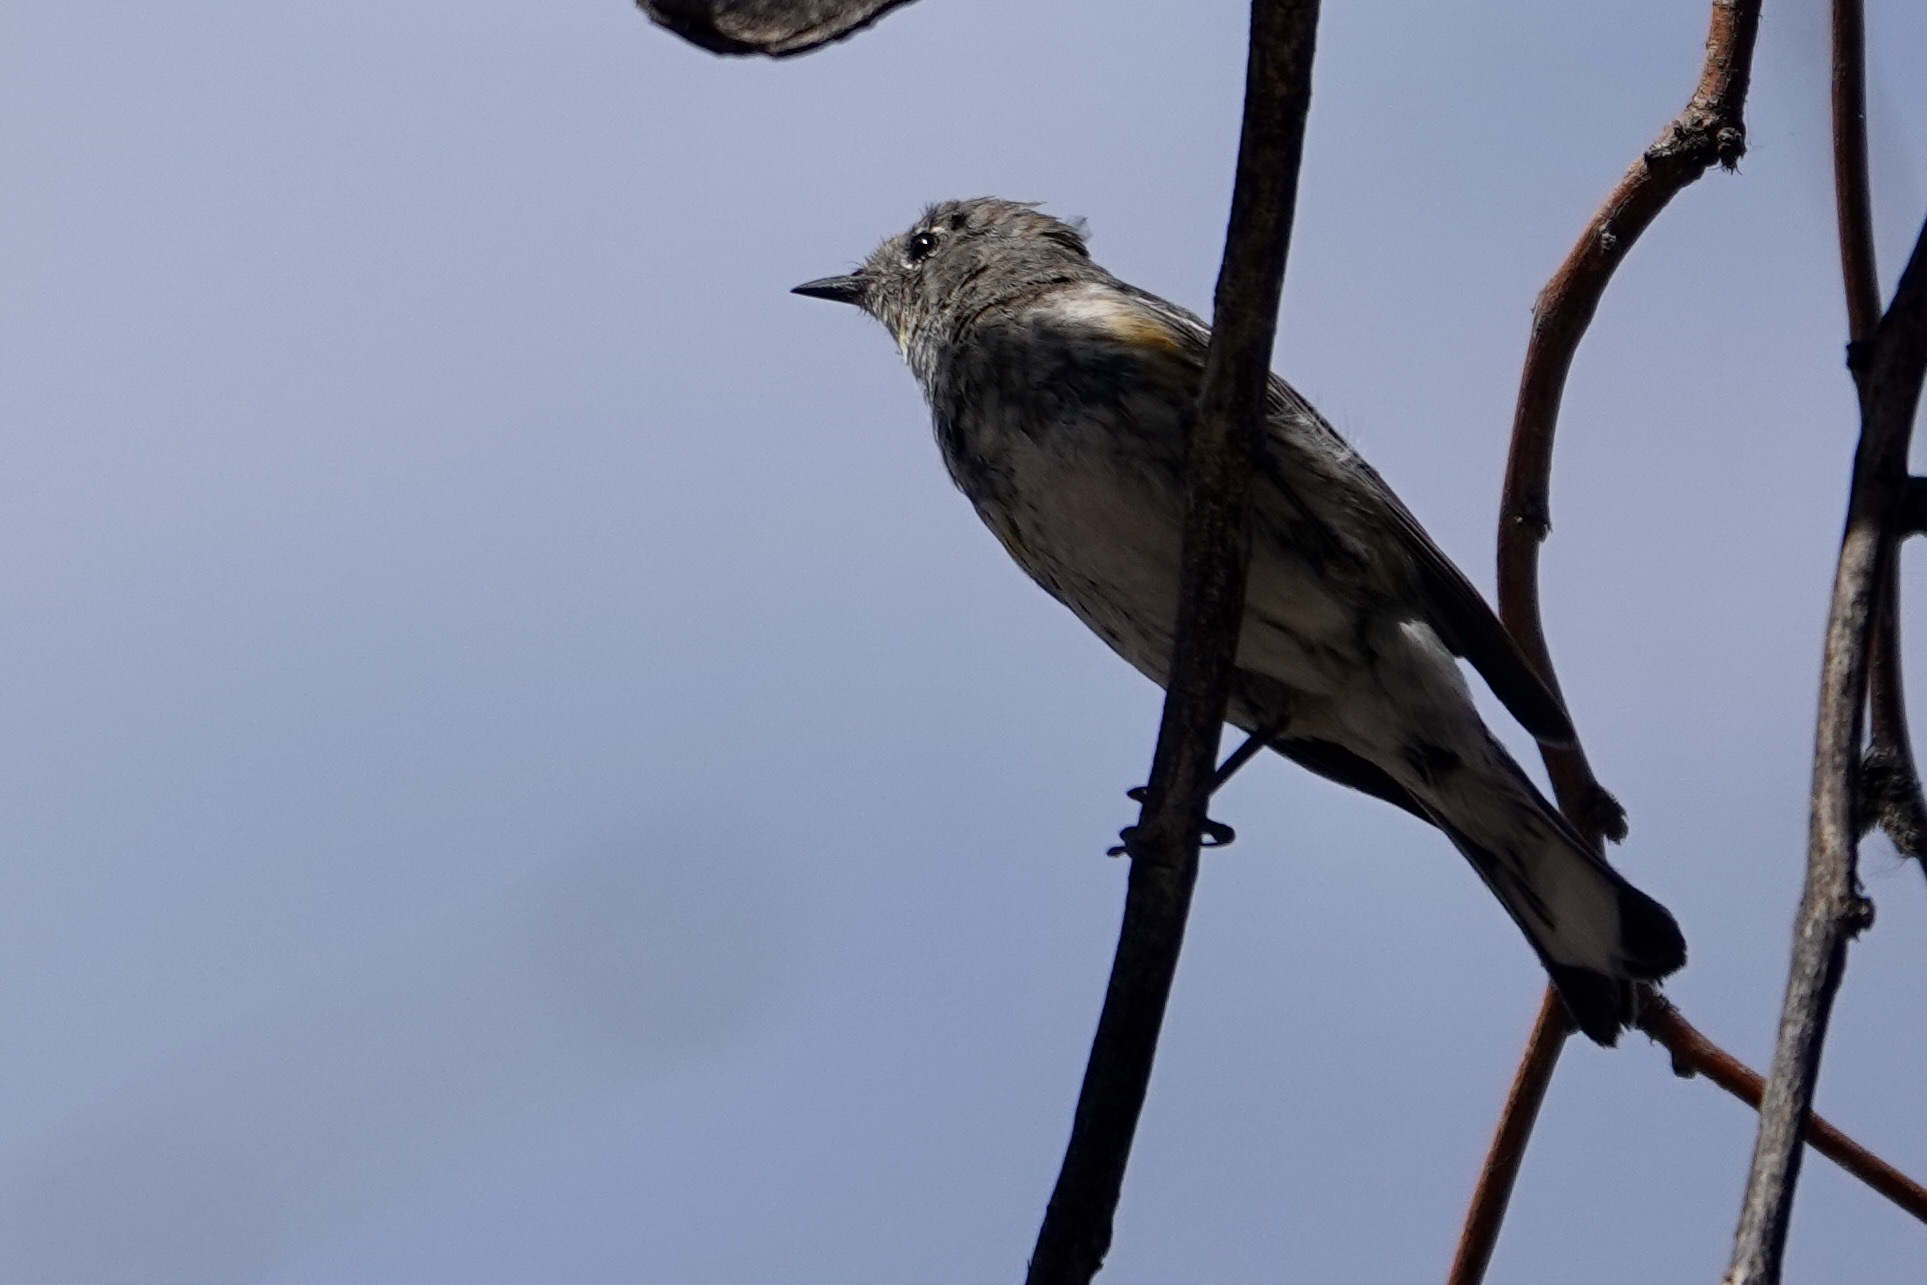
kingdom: Animalia
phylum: Chordata
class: Aves
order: Passeriformes
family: Parulidae
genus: Setophaga
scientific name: Setophaga coronata
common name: Myrtle warbler
